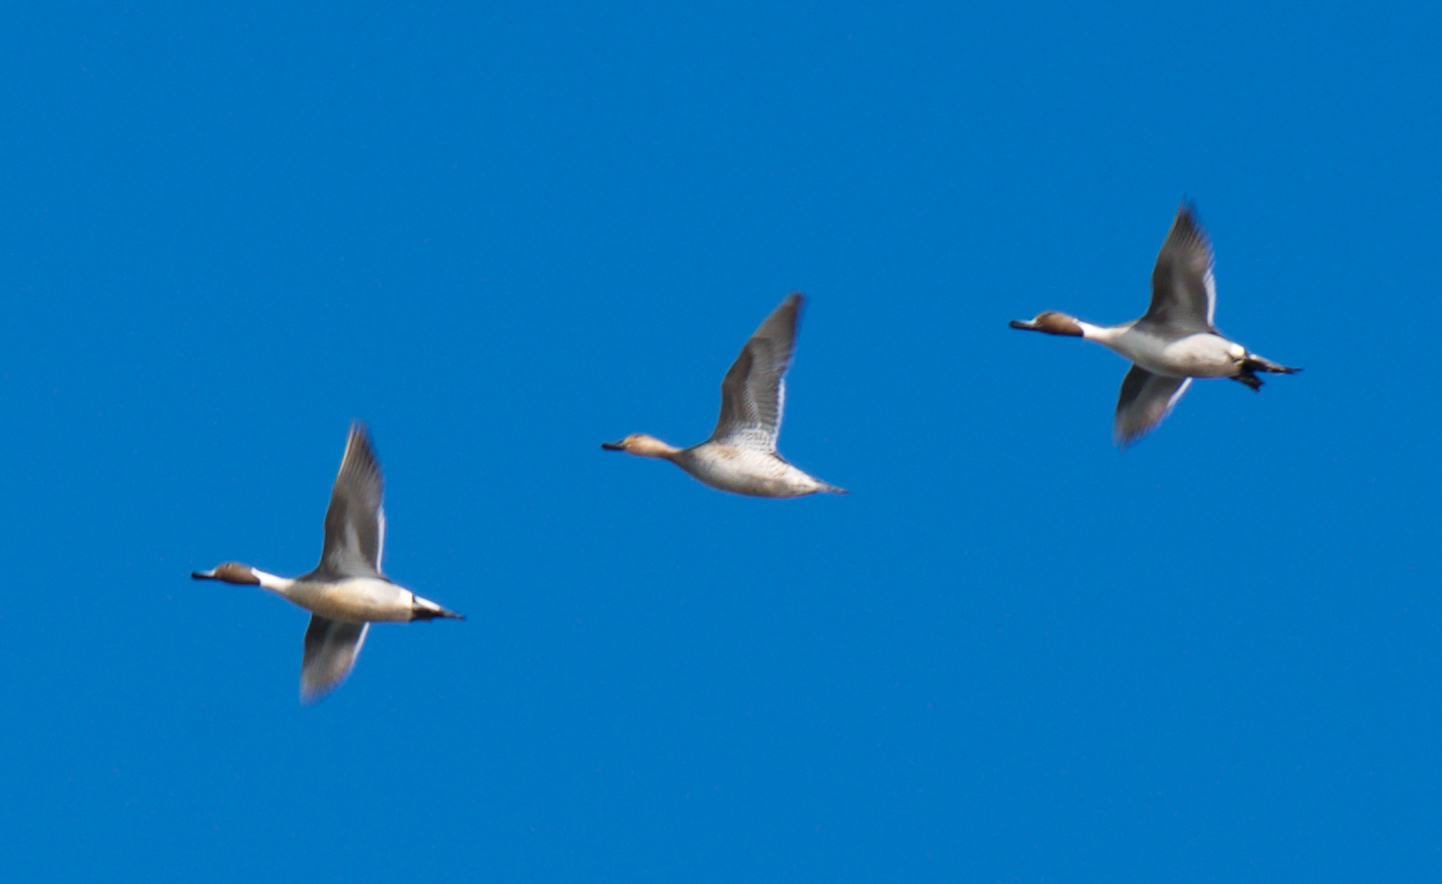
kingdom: Animalia
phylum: Chordata
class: Aves
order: Anseriformes
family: Anatidae
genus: Anas
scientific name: Anas acuta
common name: Northern pintail
